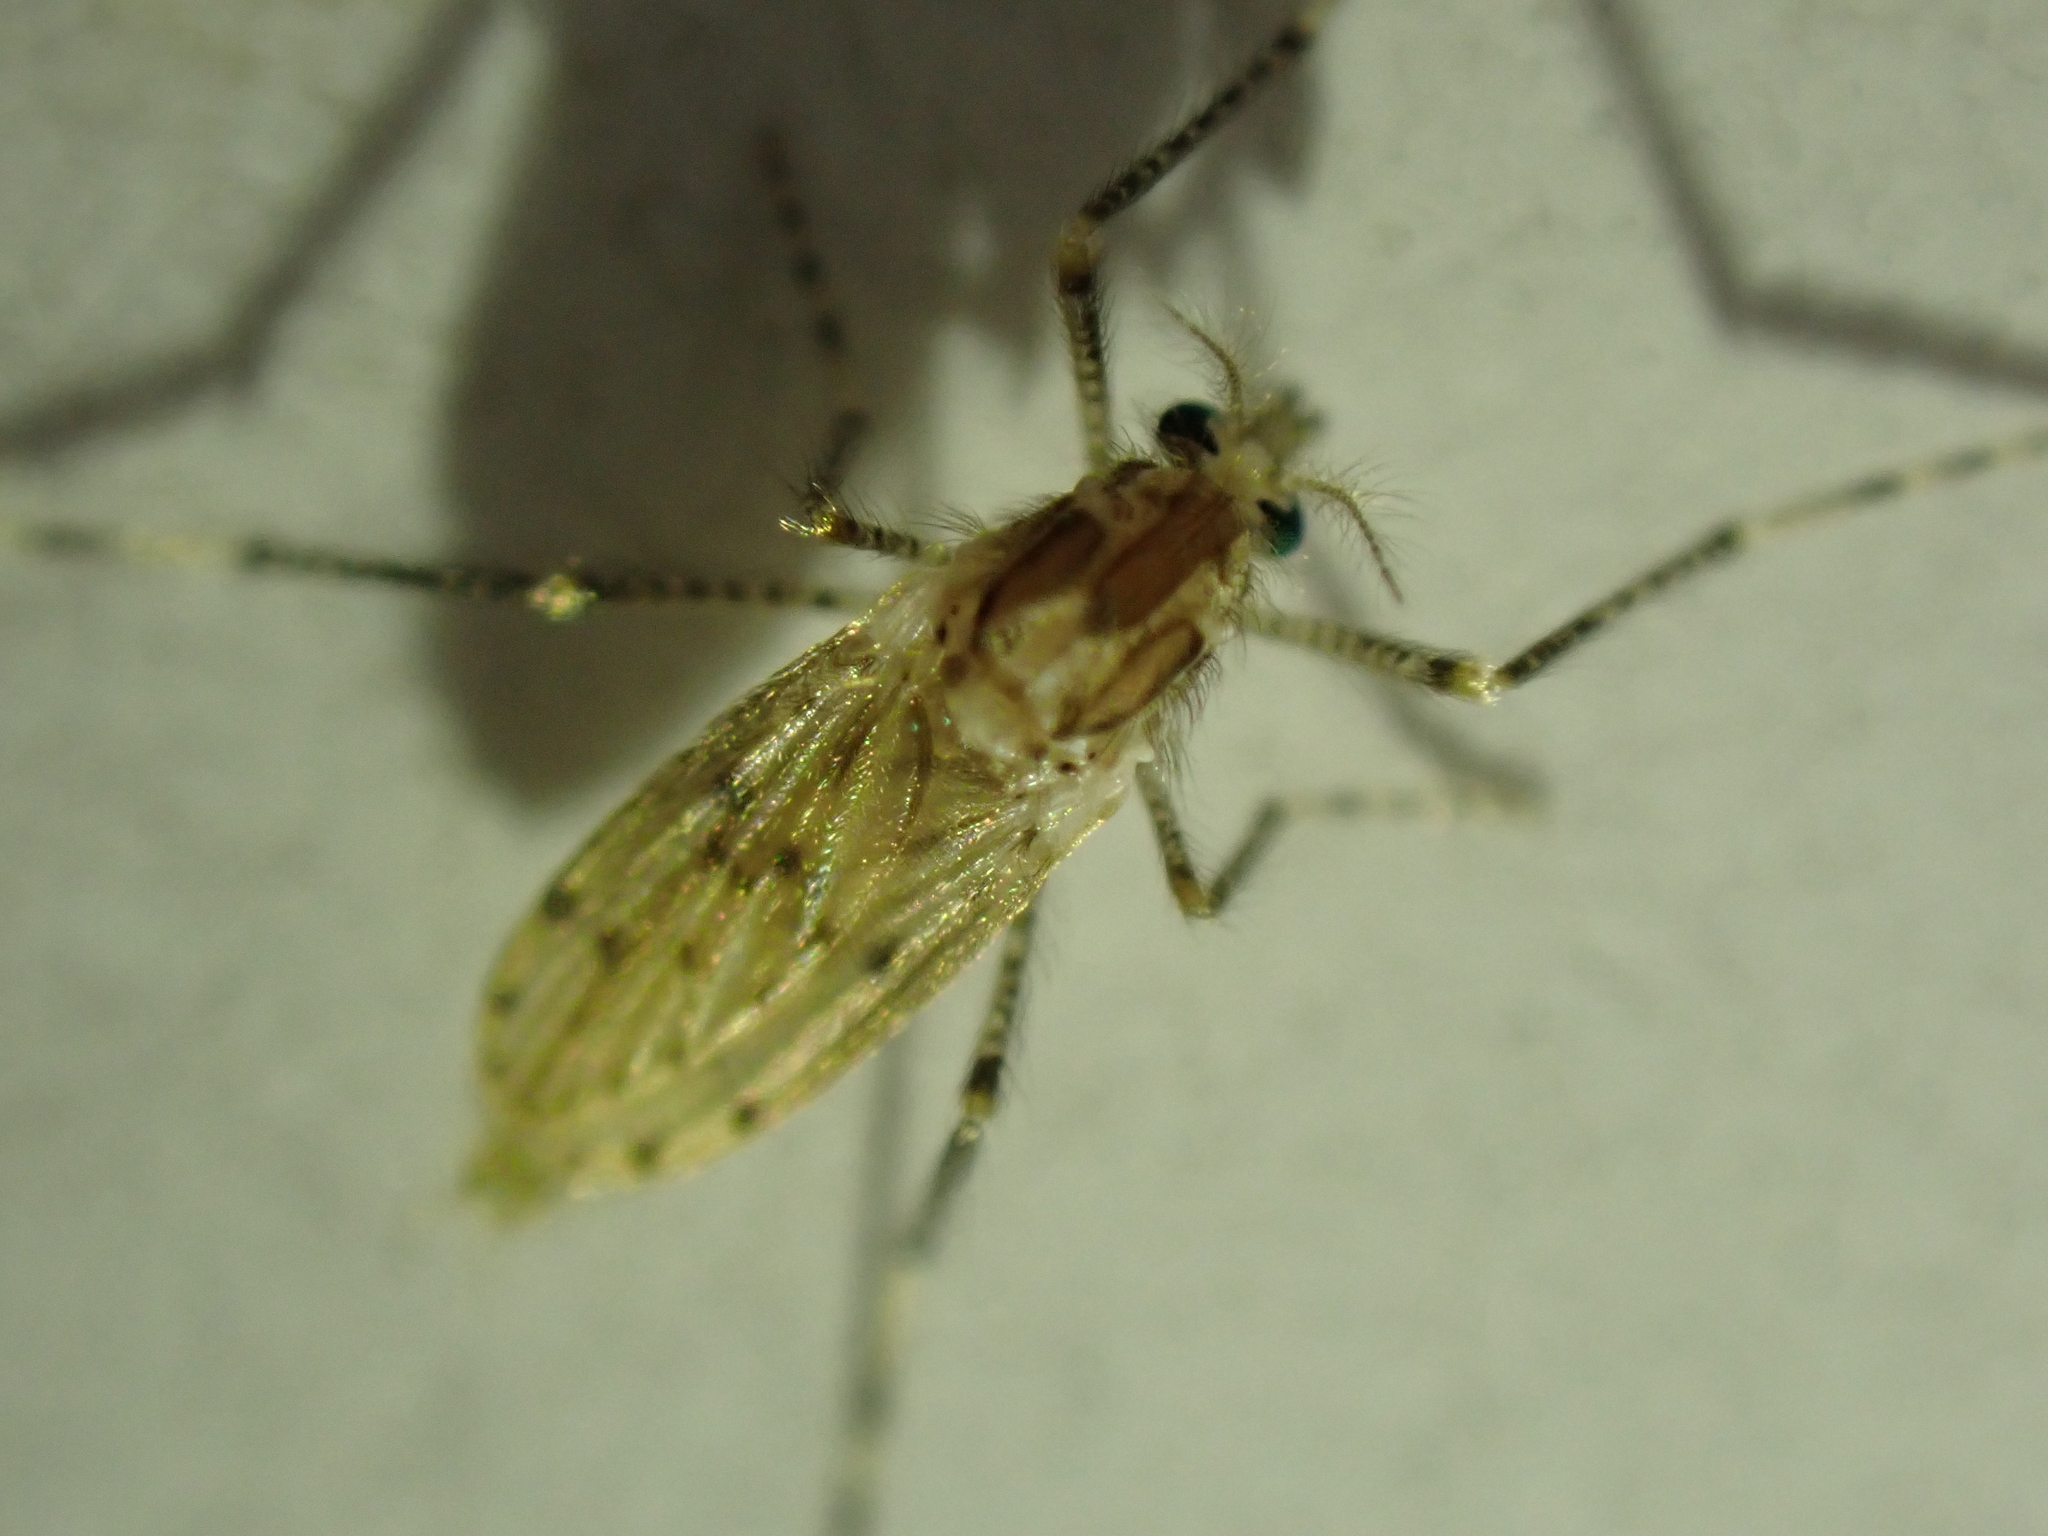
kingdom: Animalia
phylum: Arthropoda
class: Insecta
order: Diptera
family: Chaoboridae
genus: Chaoborus
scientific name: Chaoborus punctipennis
